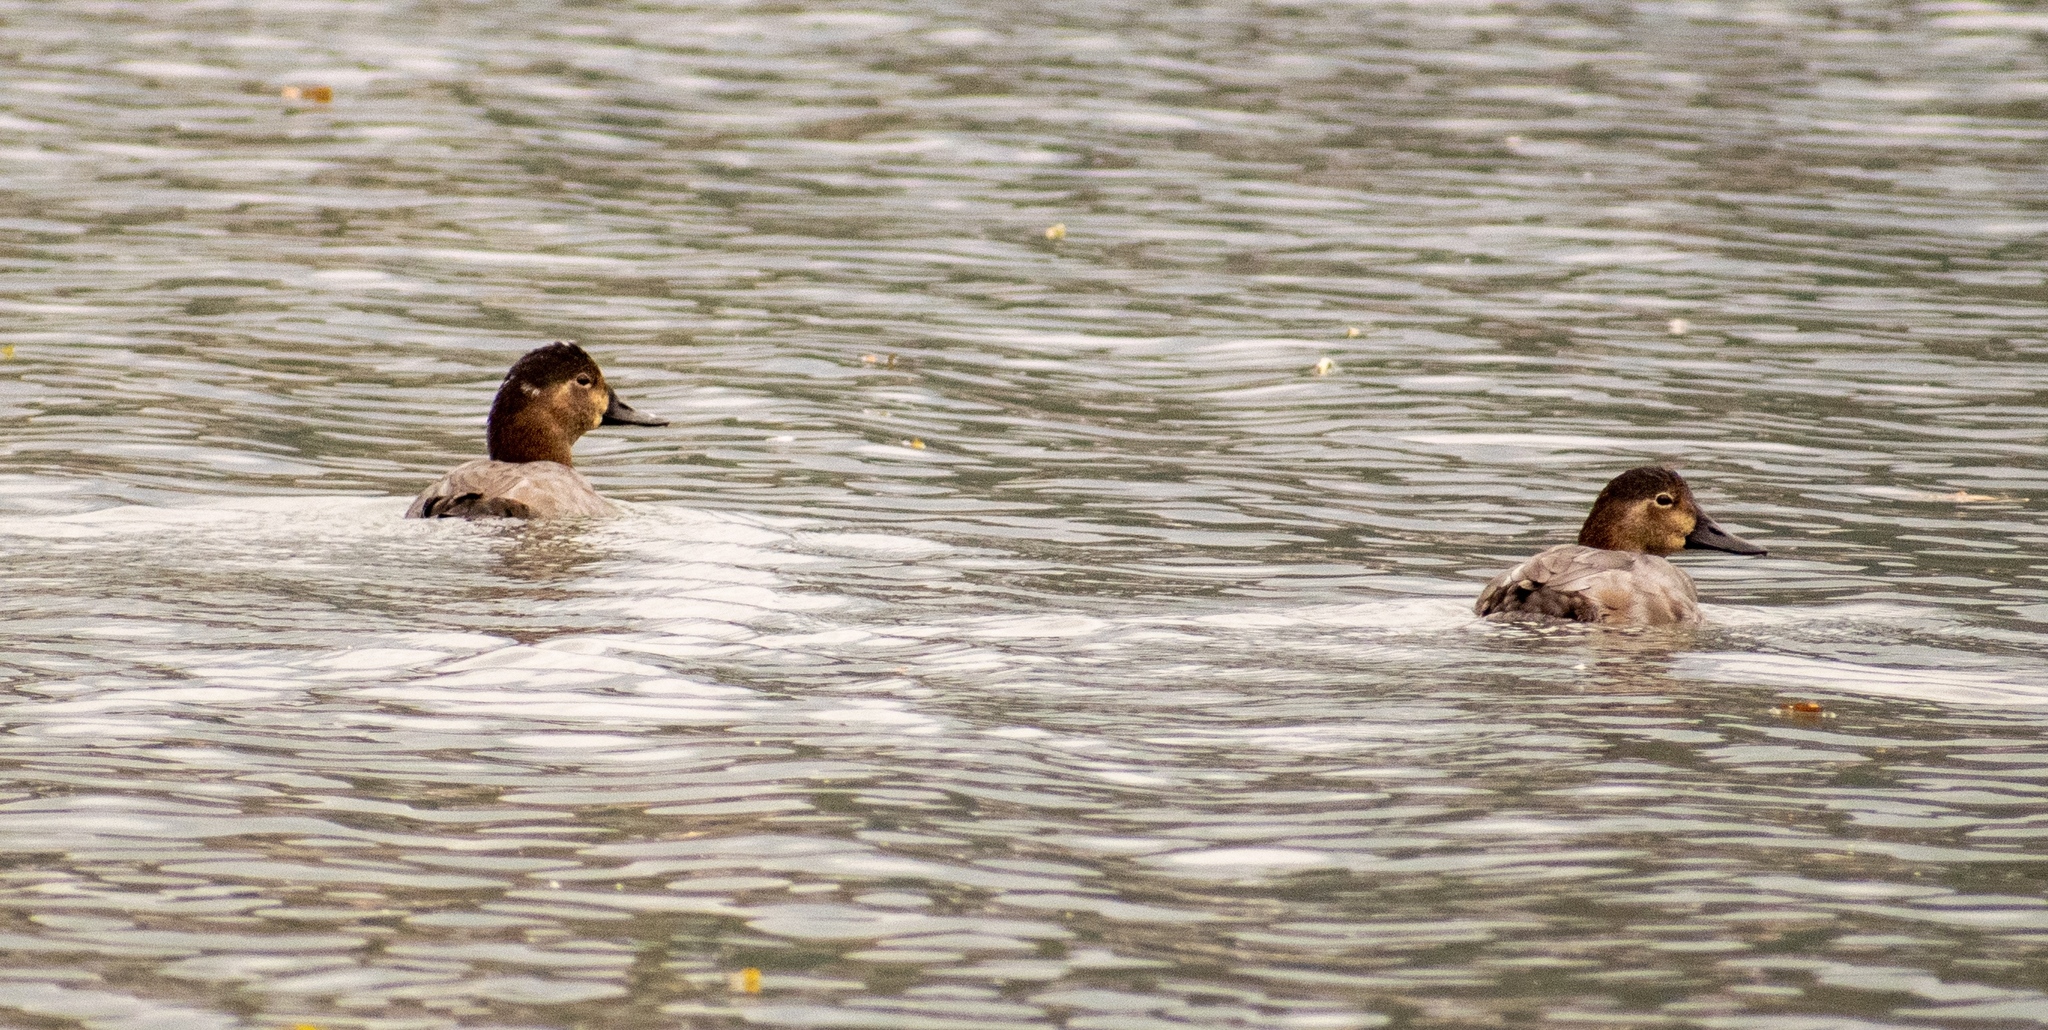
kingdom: Animalia
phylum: Chordata
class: Aves
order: Anseriformes
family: Anatidae
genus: Aythya
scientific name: Aythya ferina
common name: Common pochard
